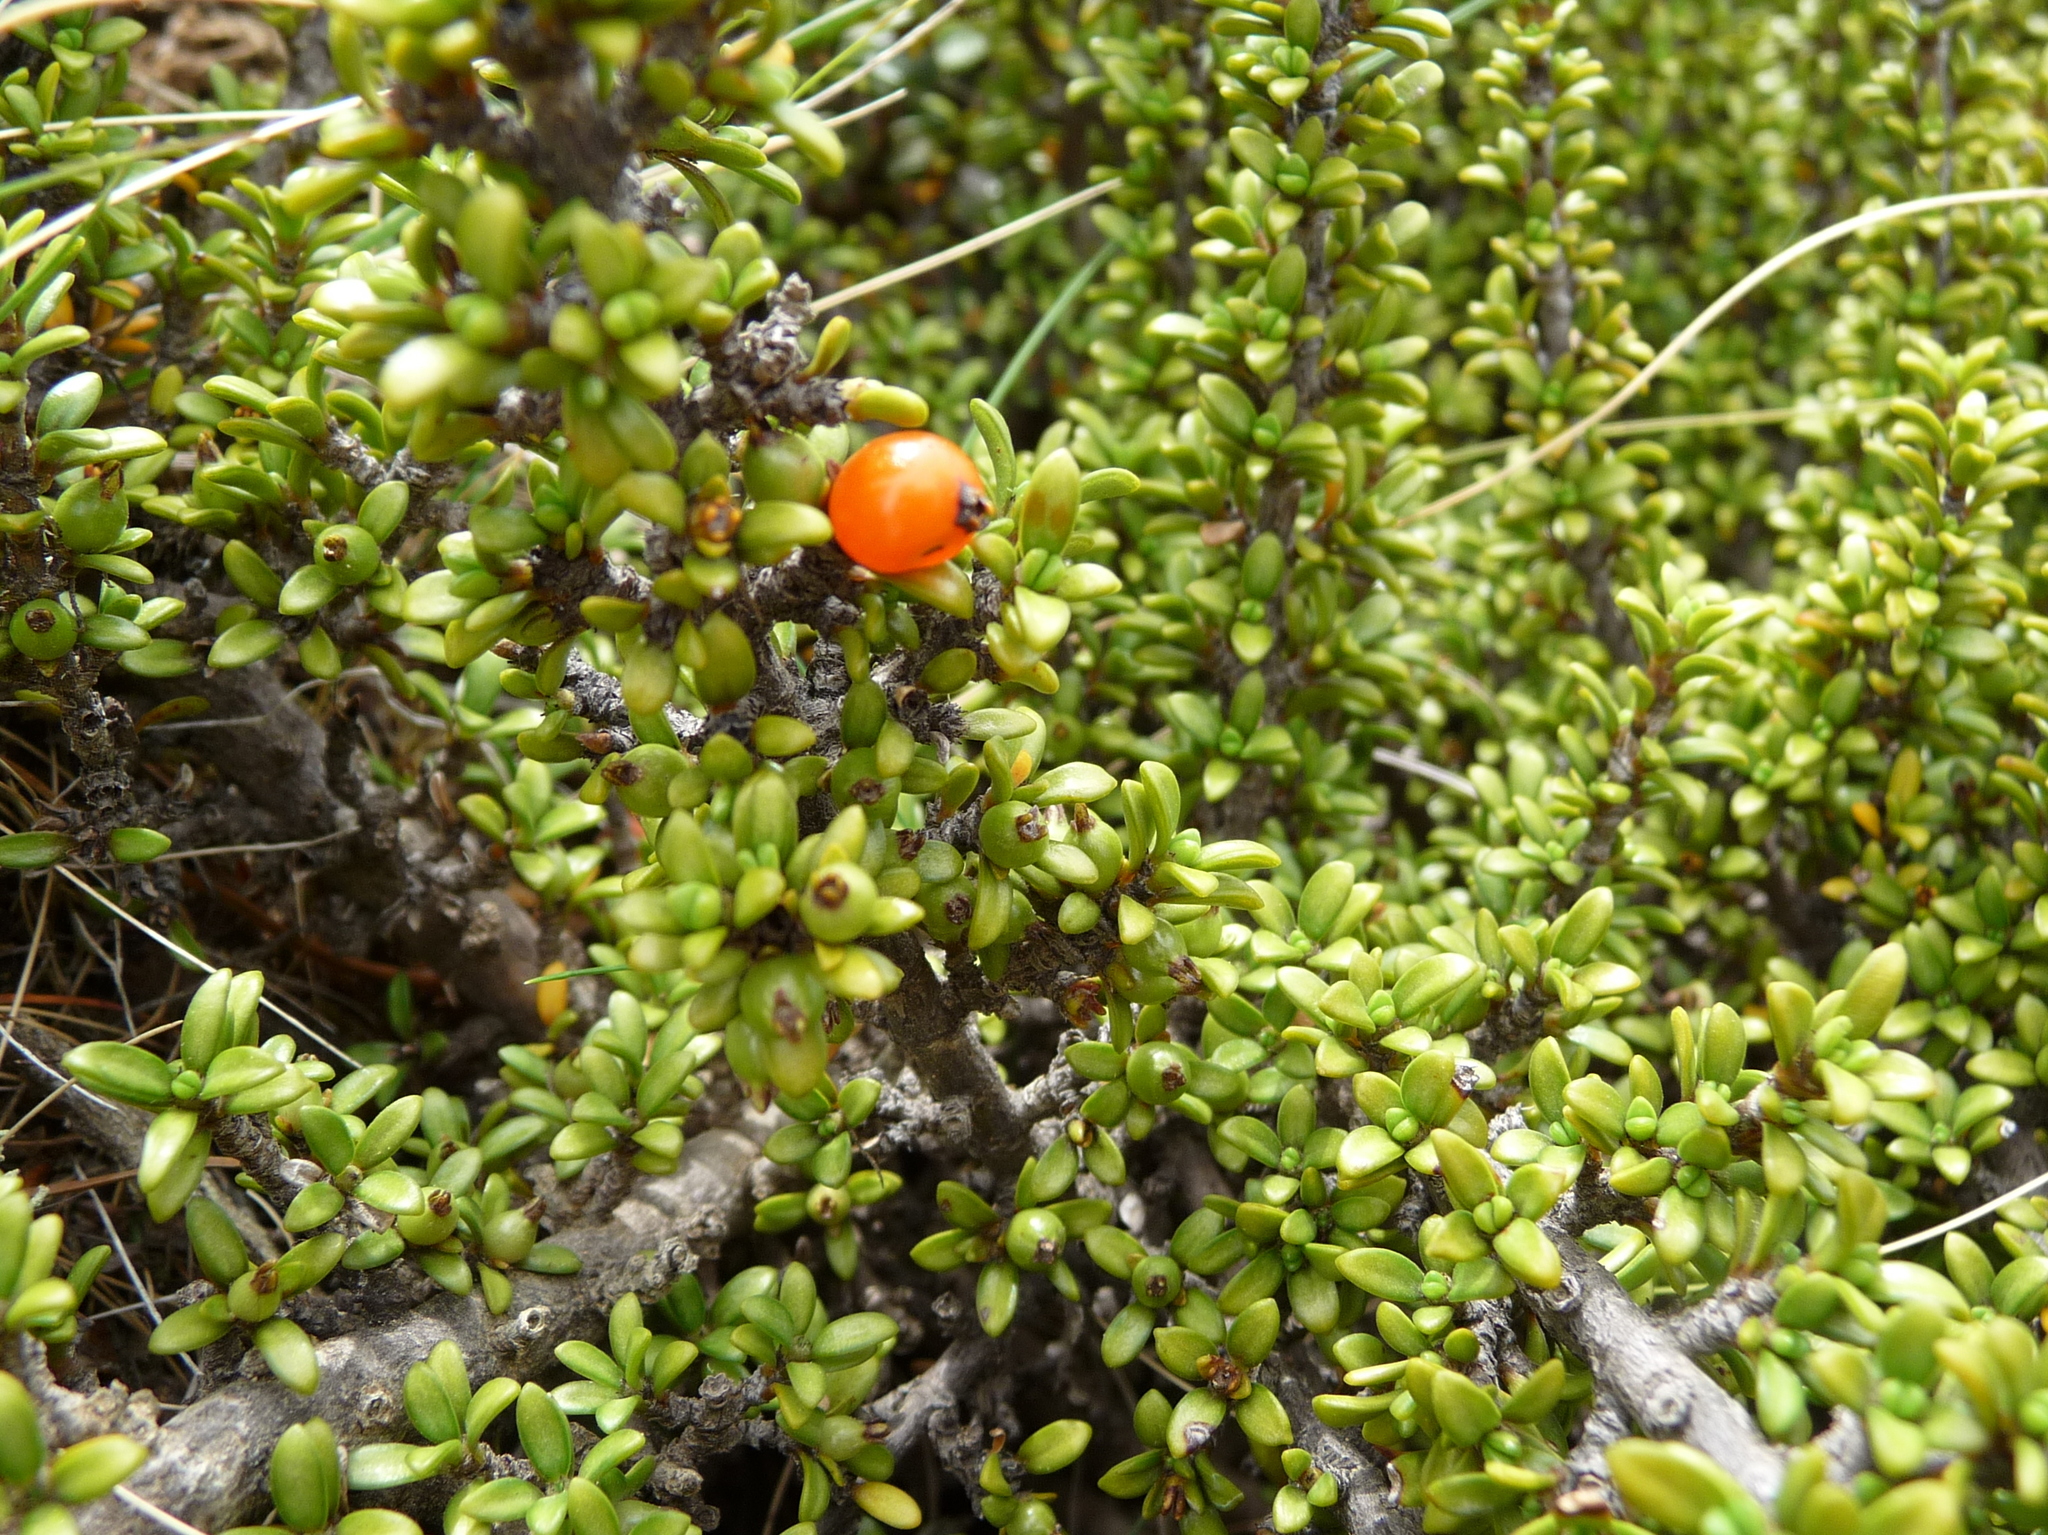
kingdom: Plantae
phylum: Tracheophyta
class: Magnoliopsida
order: Gentianales
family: Rubiaceae
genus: Coprosma
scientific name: Coprosma fowerakeri
